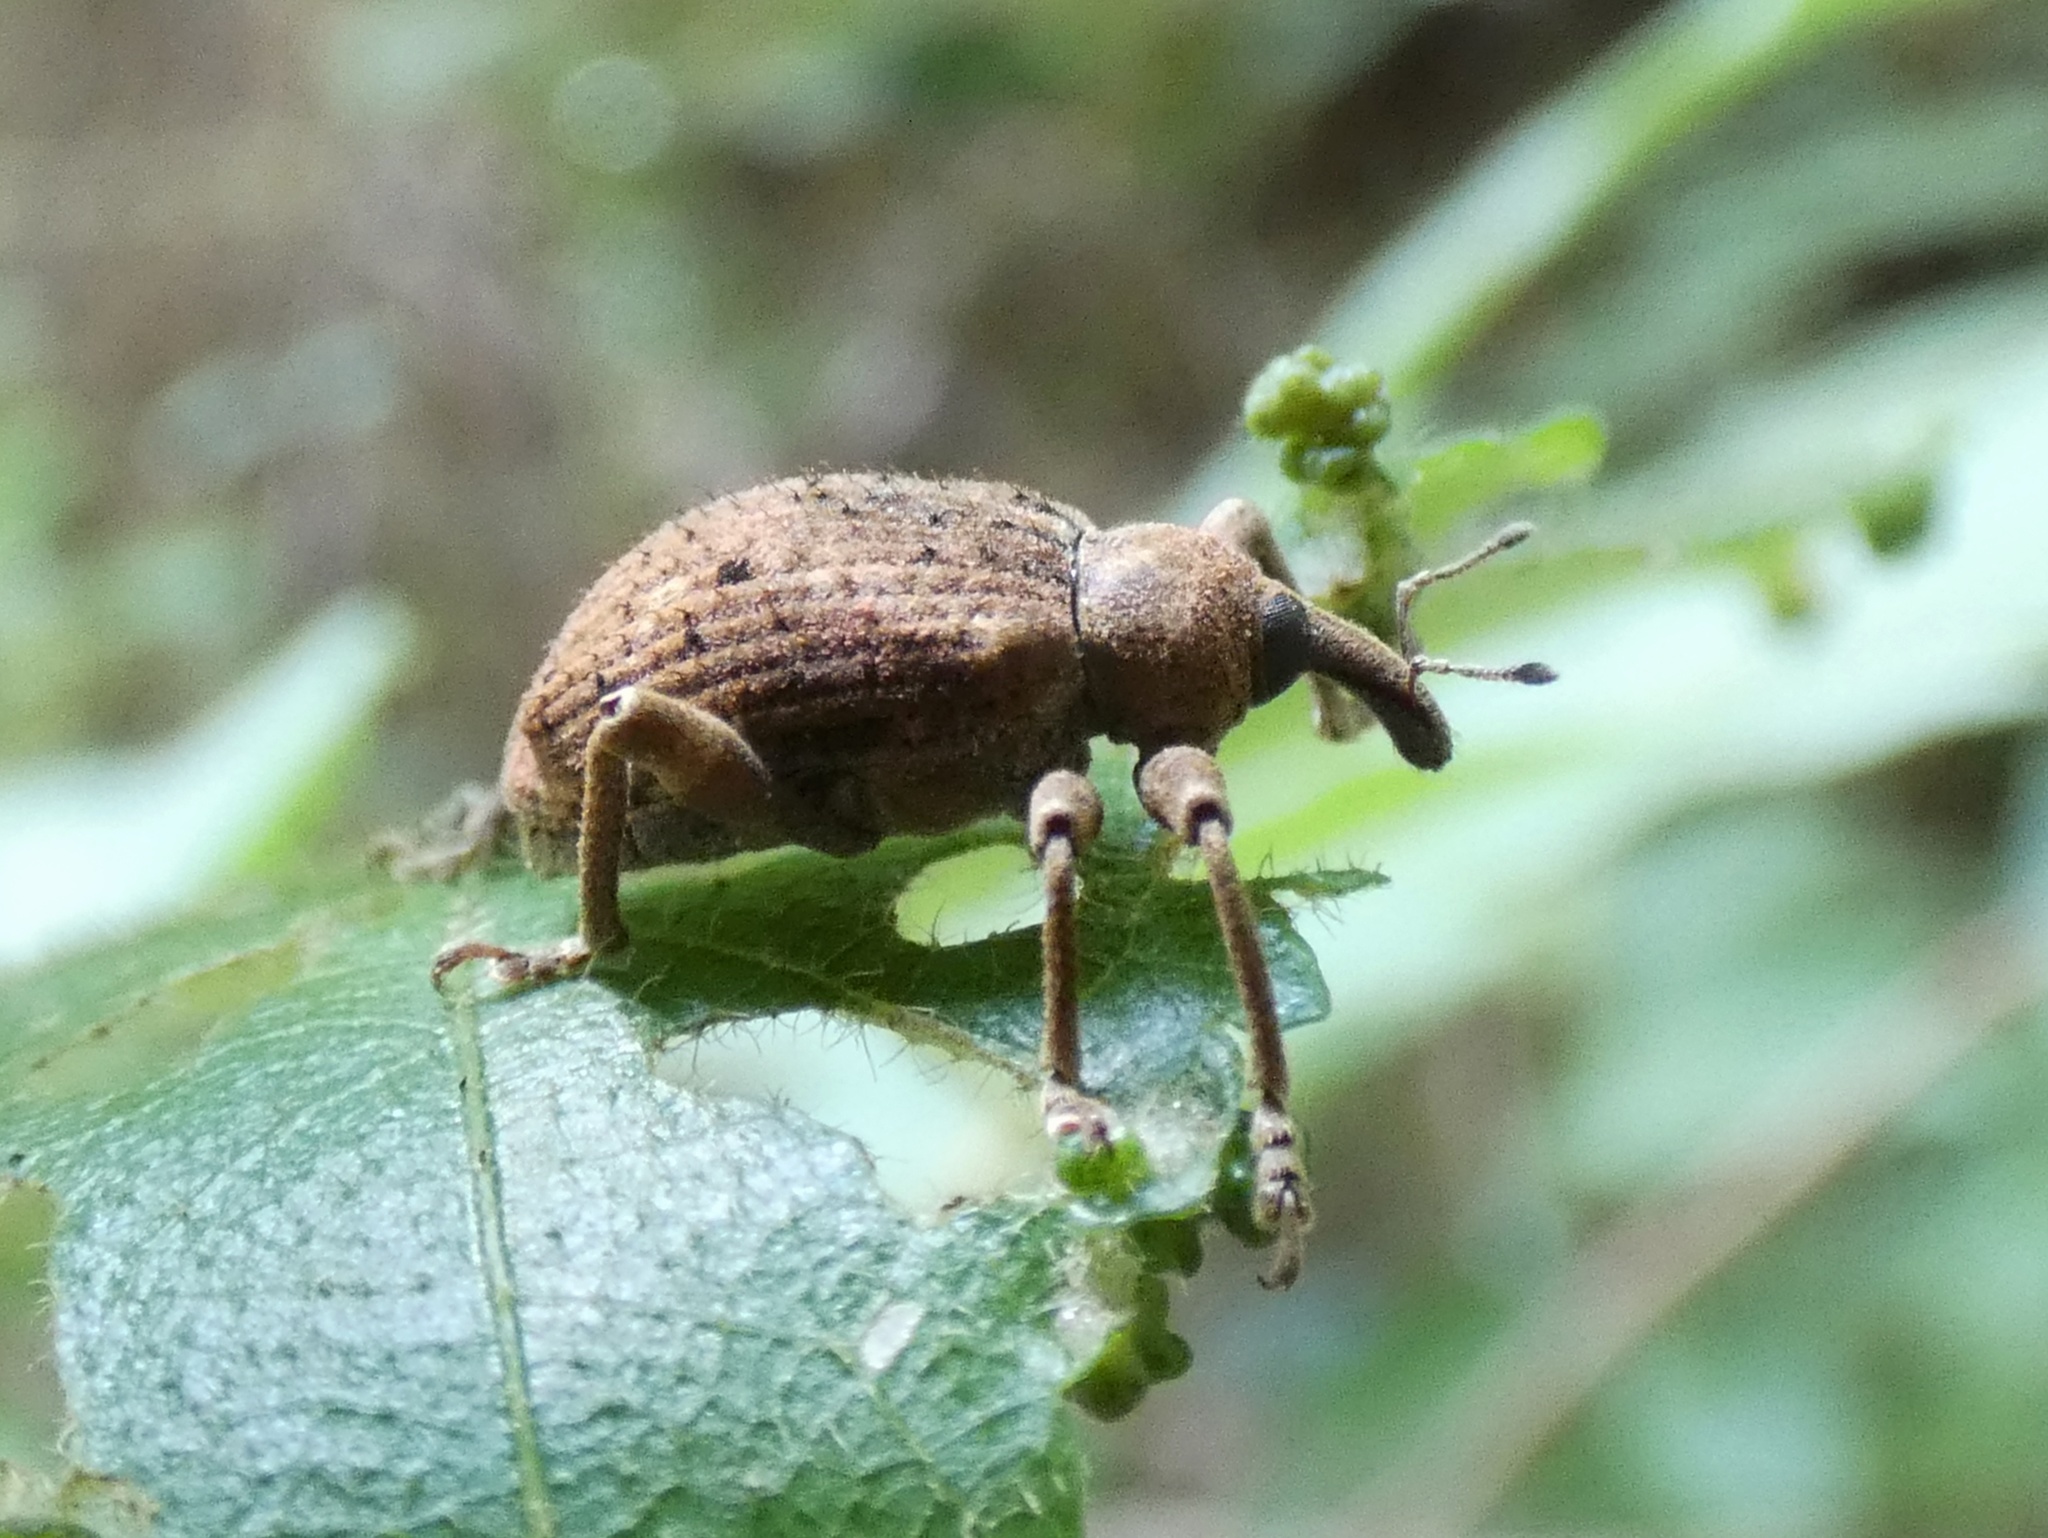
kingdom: Animalia
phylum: Arthropoda
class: Insecta
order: Coleoptera
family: Curculionidae
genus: Phelypera
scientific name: Phelypera
